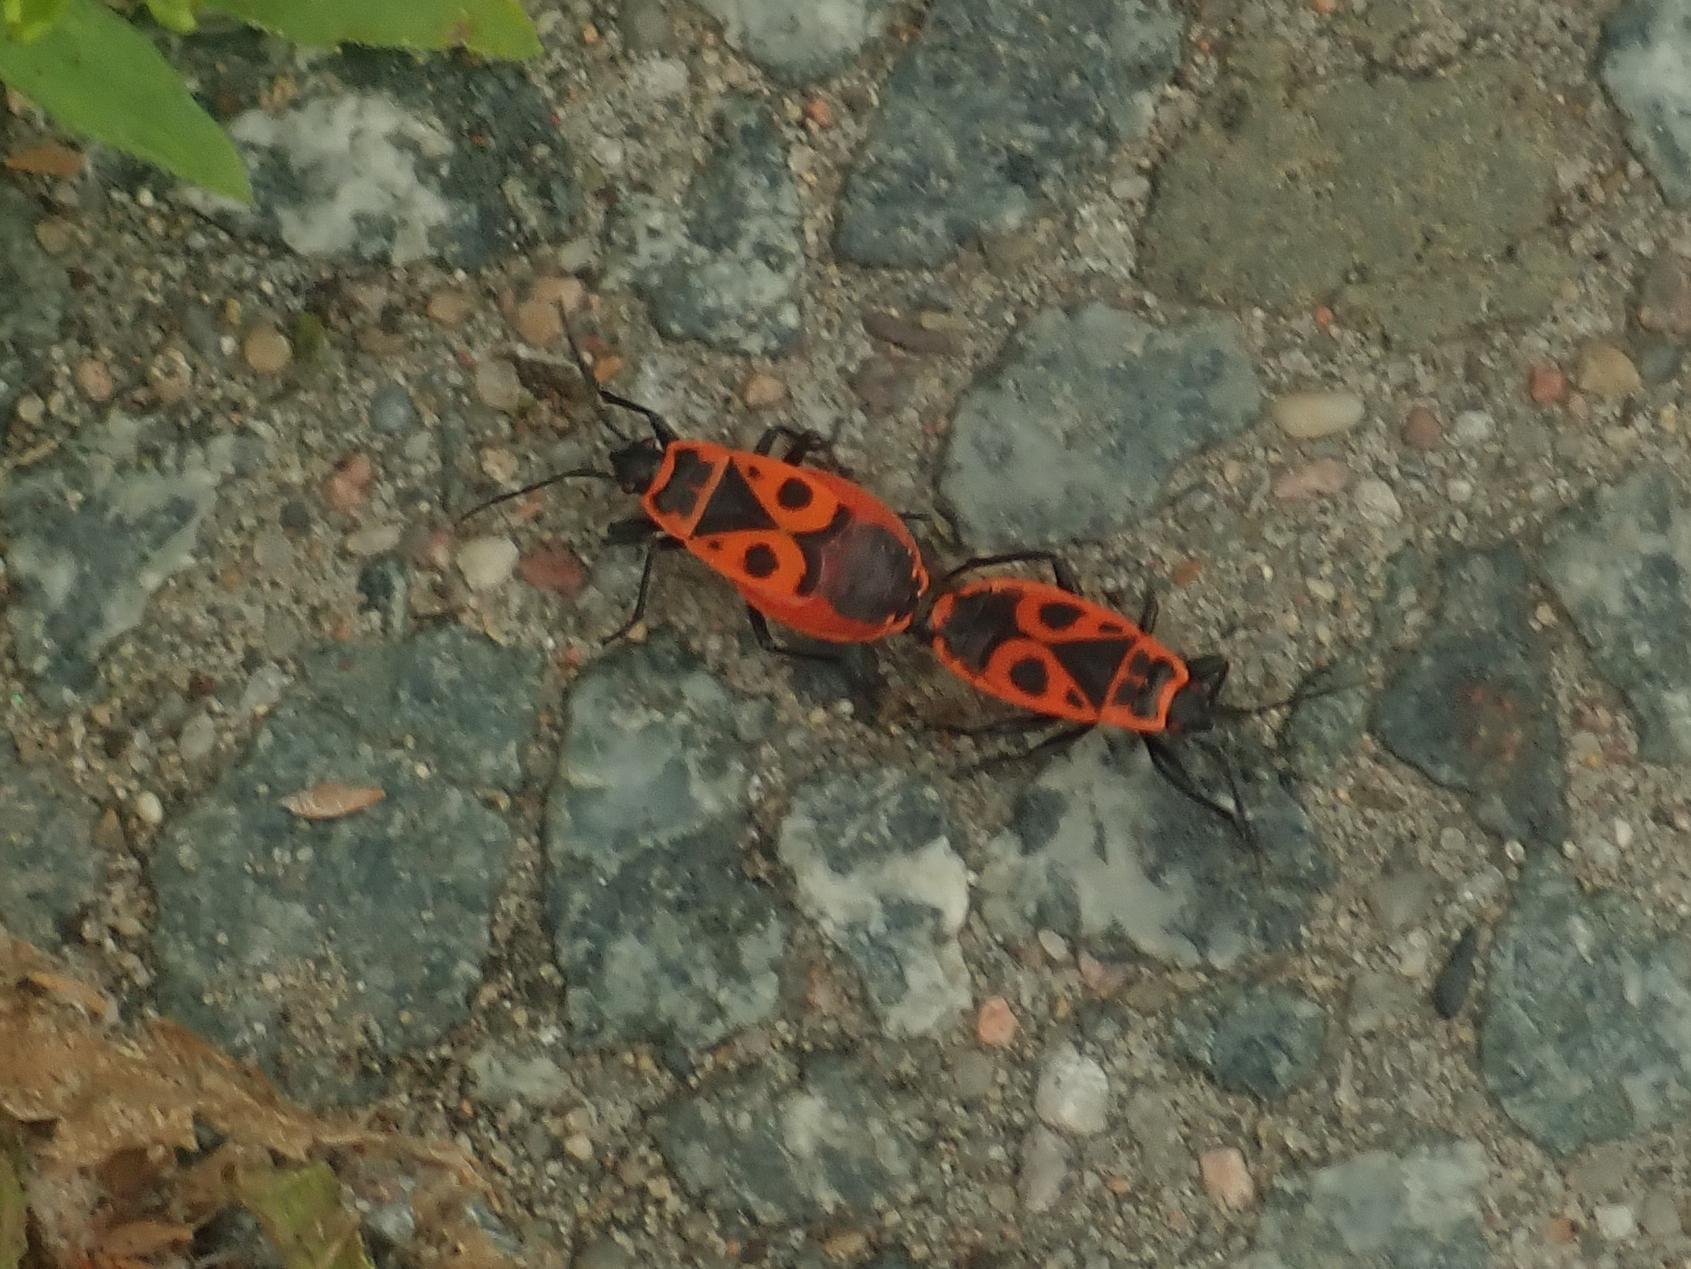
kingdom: Animalia
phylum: Arthropoda
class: Insecta
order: Hemiptera
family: Pyrrhocoridae
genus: Pyrrhocoris
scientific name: Pyrrhocoris apterus
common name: Firebug
